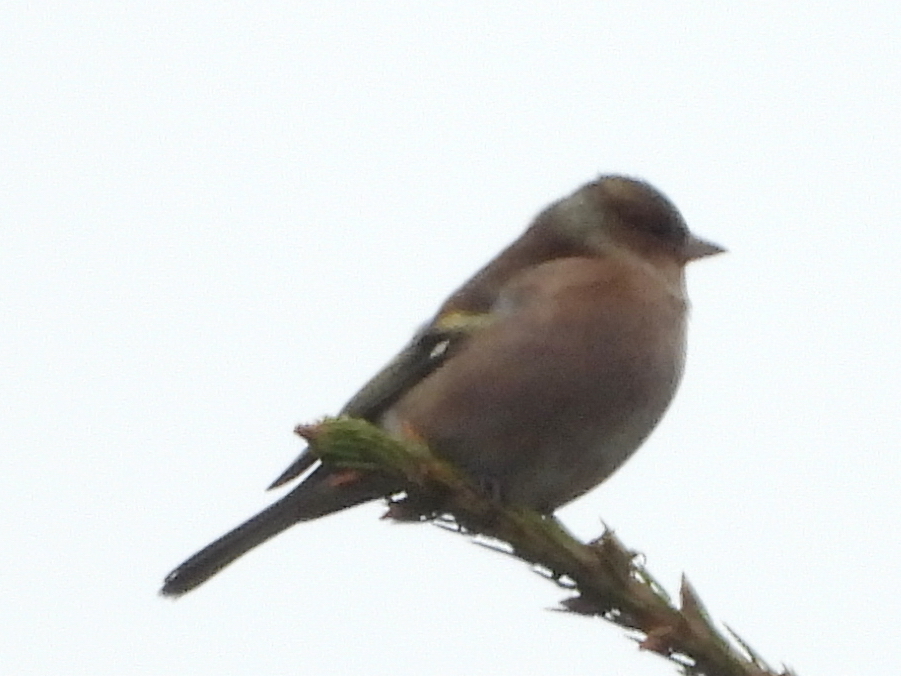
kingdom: Animalia
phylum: Chordata
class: Aves
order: Passeriformes
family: Fringillidae
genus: Fringilla
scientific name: Fringilla coelebs
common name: Common chaffinch
